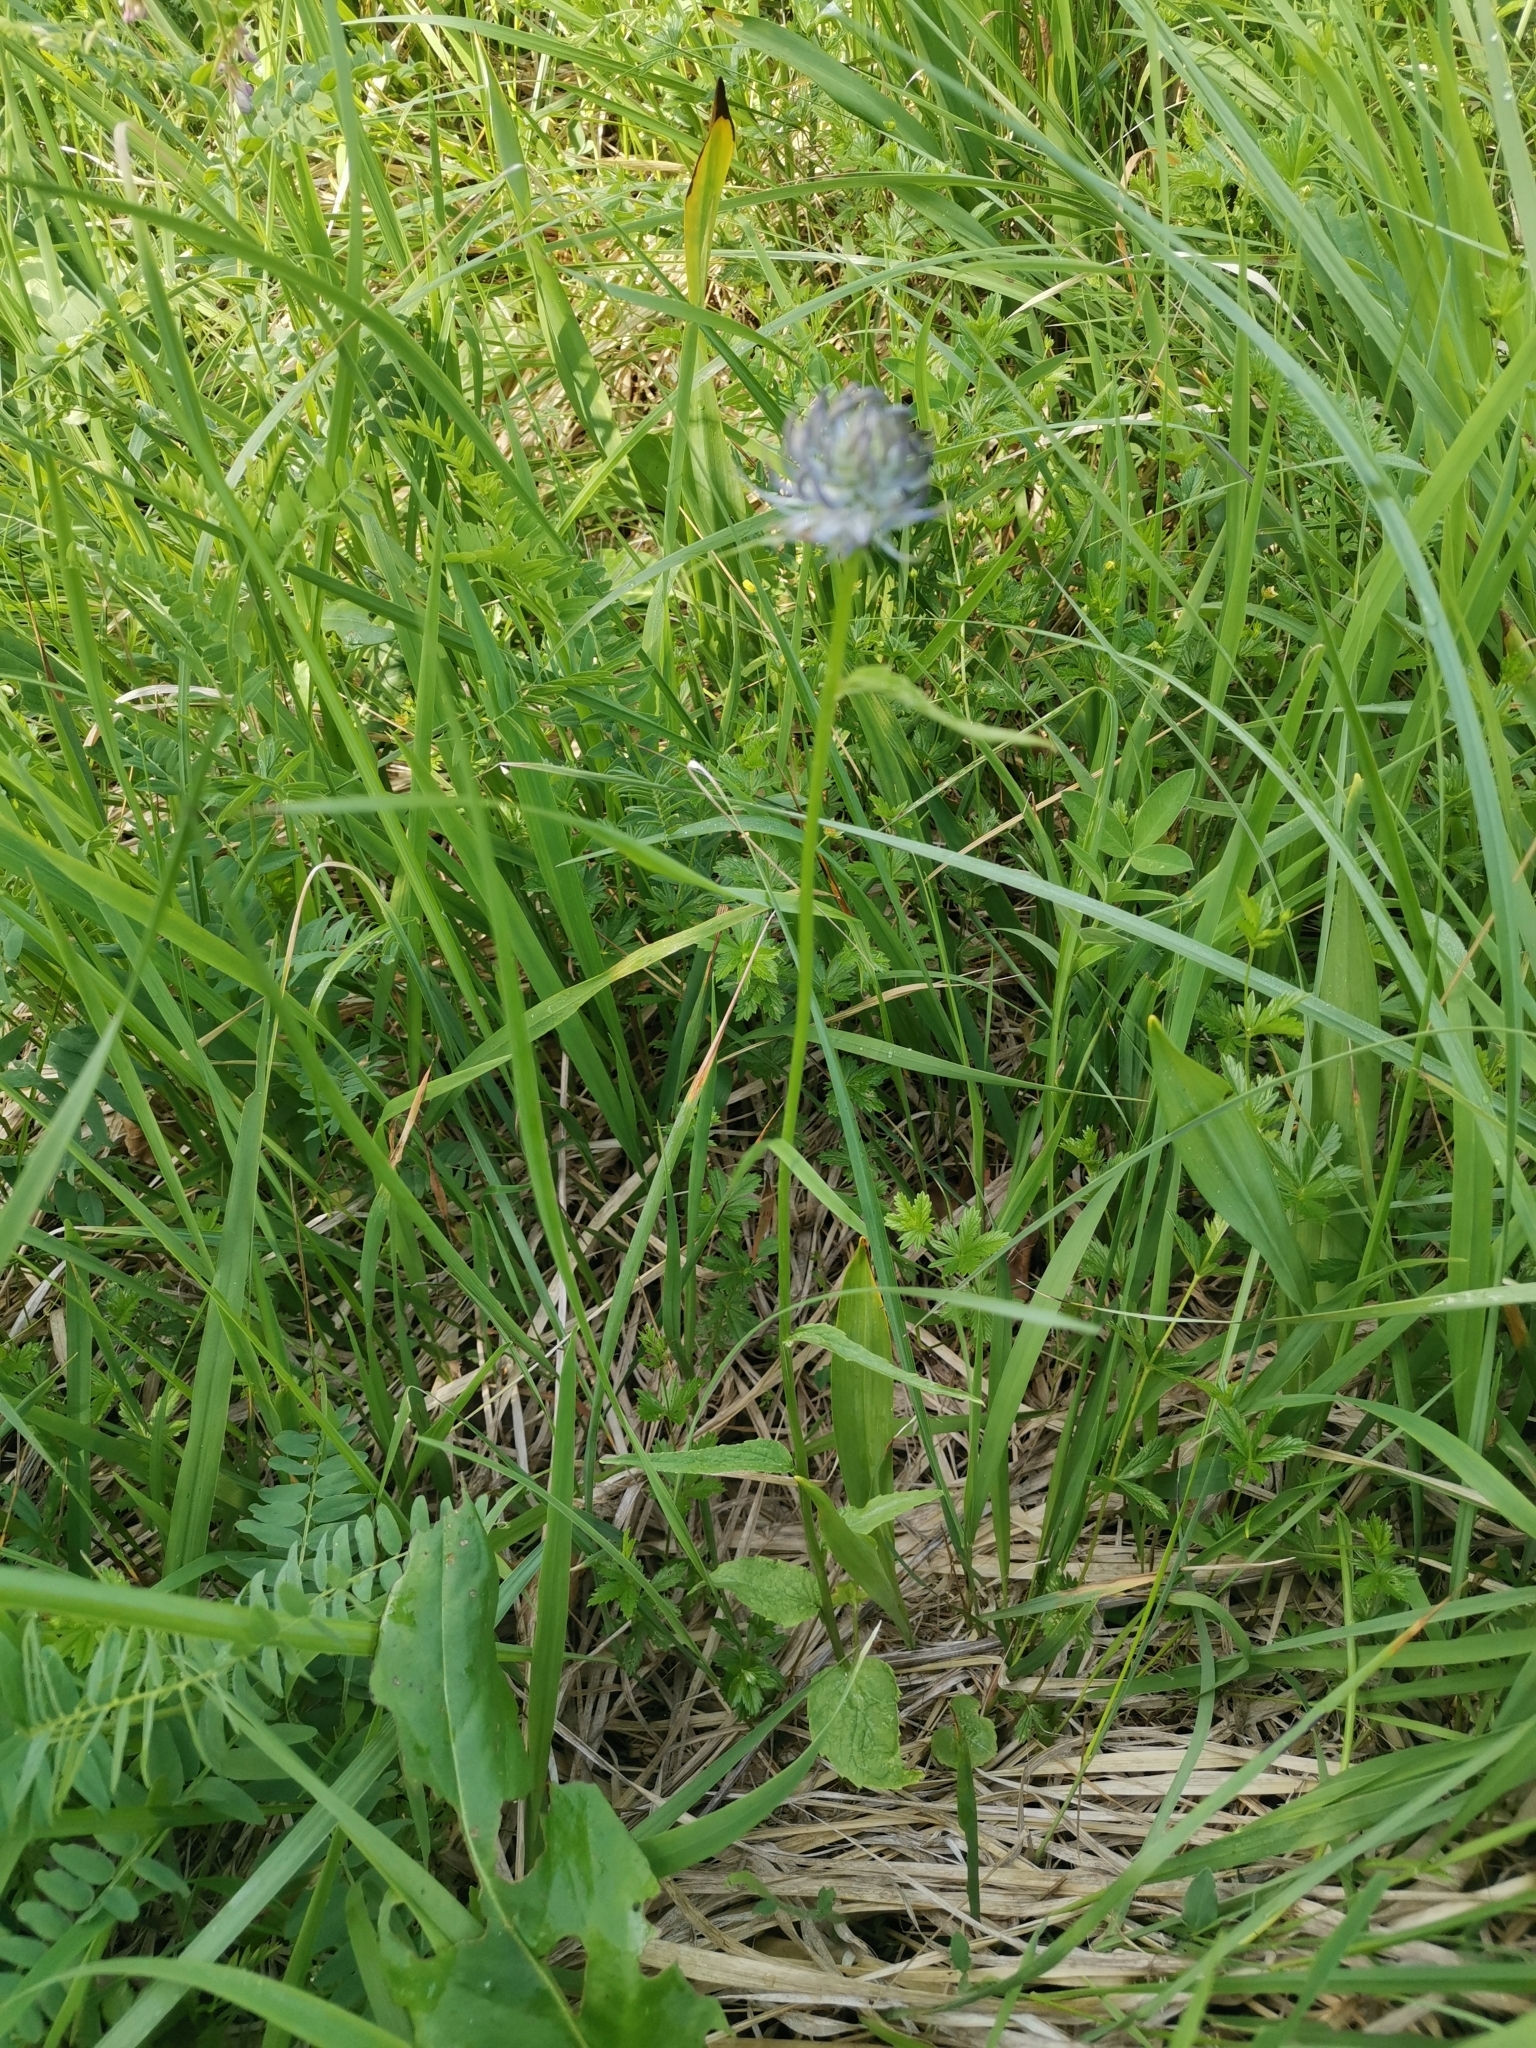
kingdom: Plantae
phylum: Tracheophyta
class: Magnoliopsida
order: Asterales
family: Campanulaceae
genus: Phyteuma
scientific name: Phyteuma orbiculare
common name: Round-headed rampion
